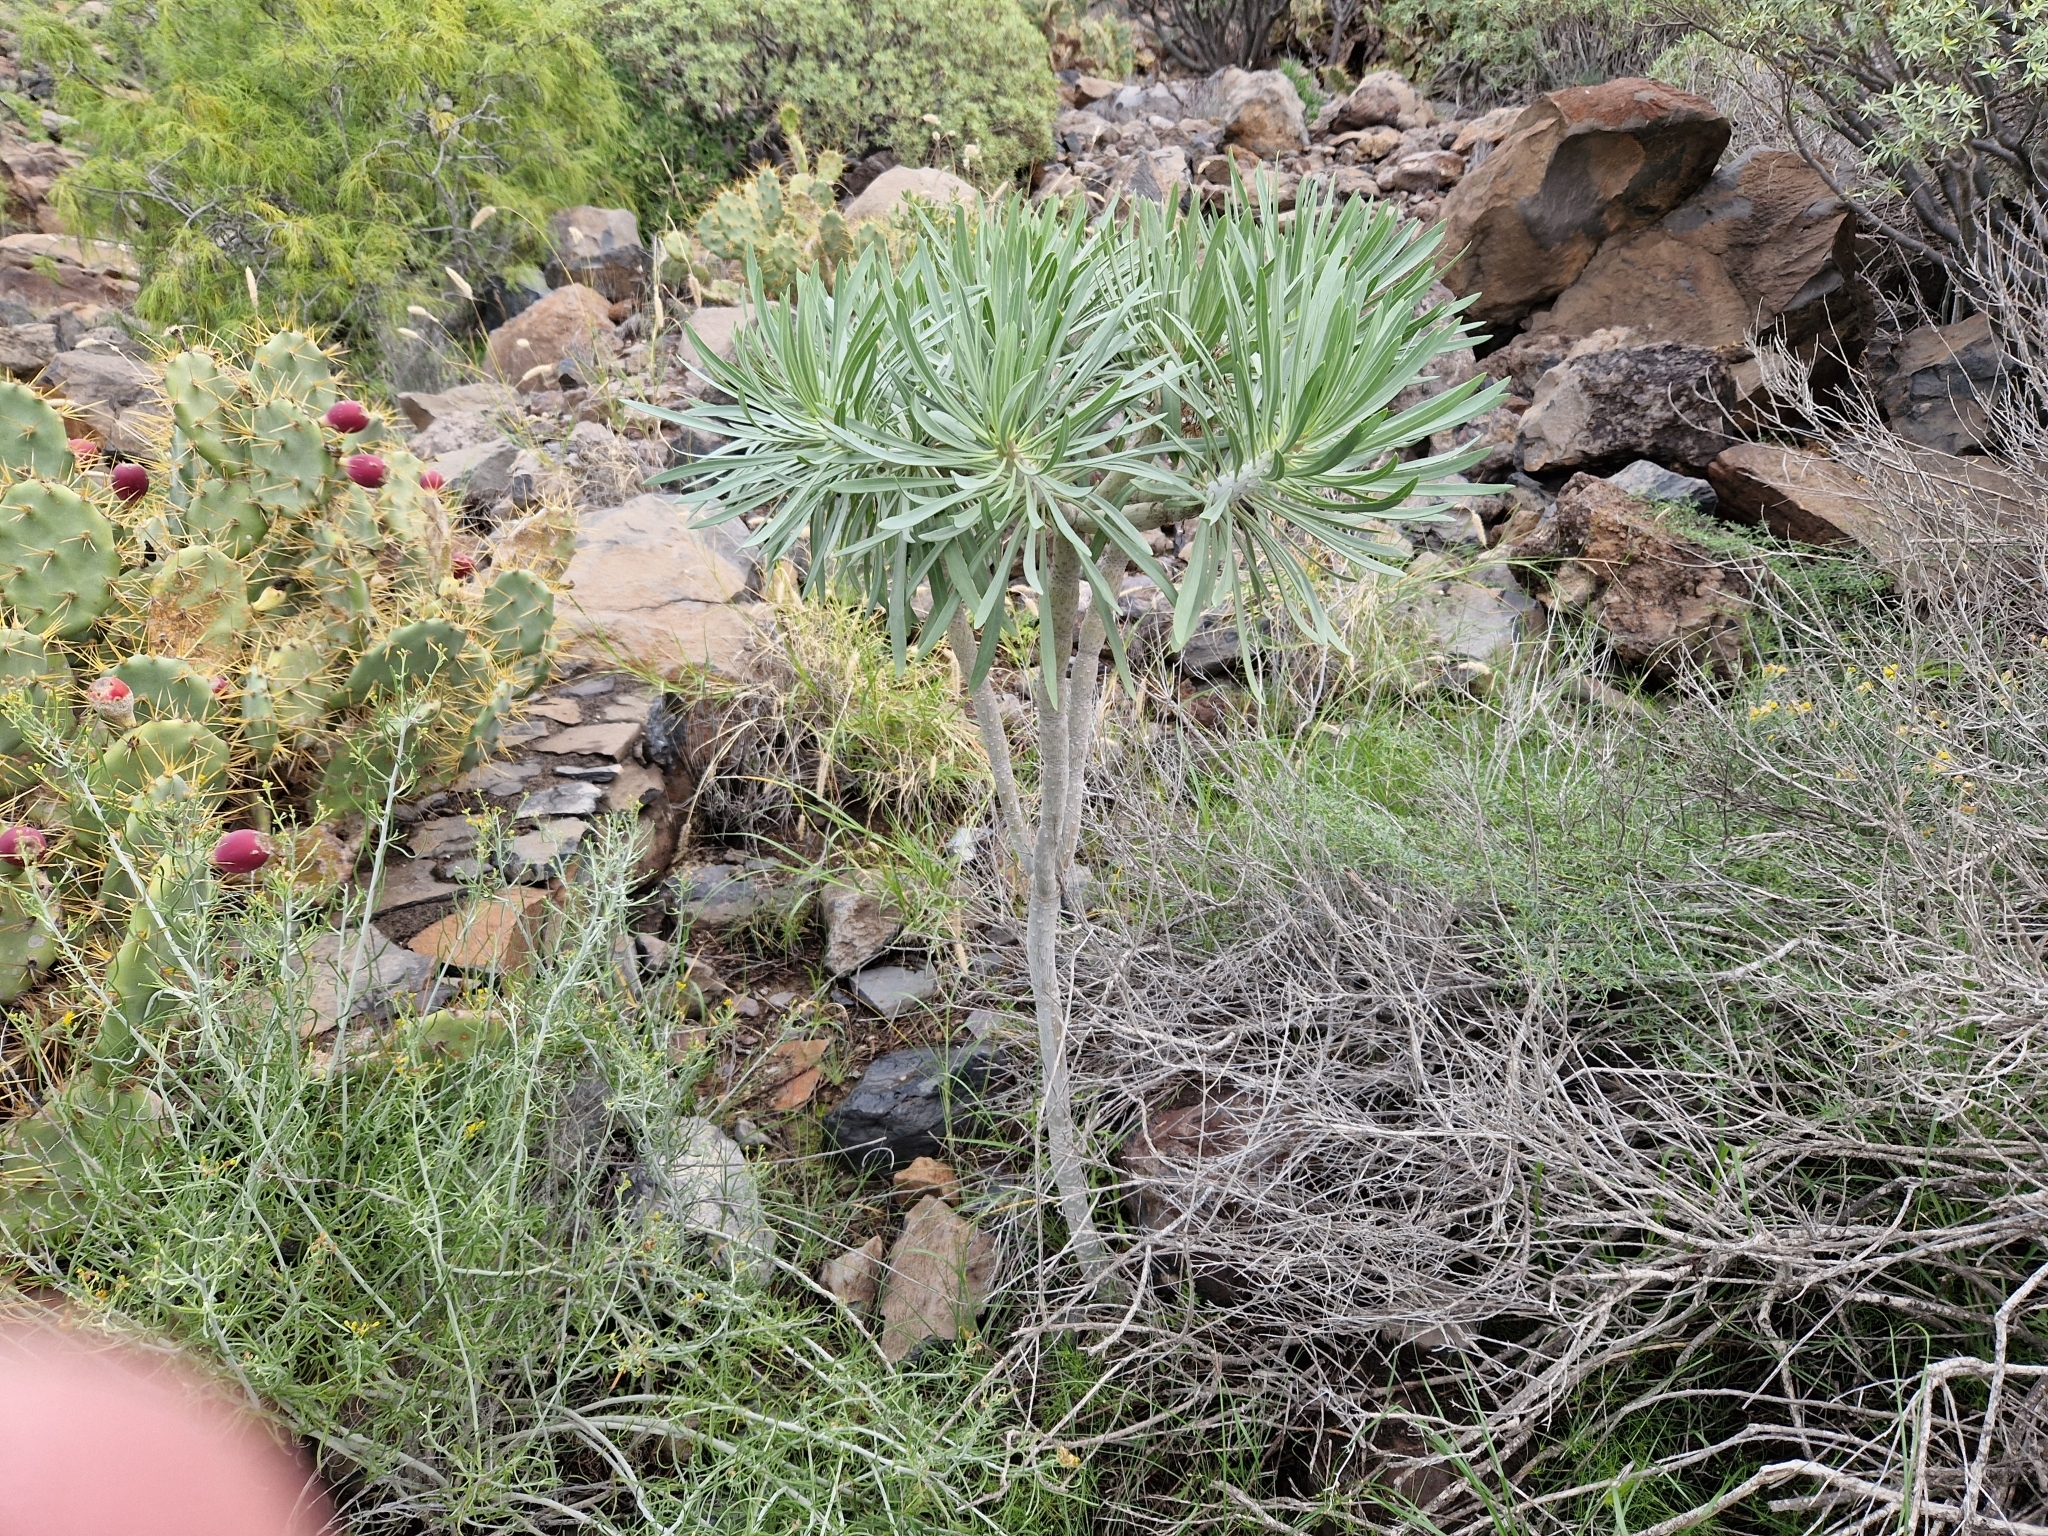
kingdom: Plantae
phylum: Tracheophyta
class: Magnoliopsida
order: Asterales
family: Asteraceae
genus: Kleinia
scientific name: Kleinia neriifolia
